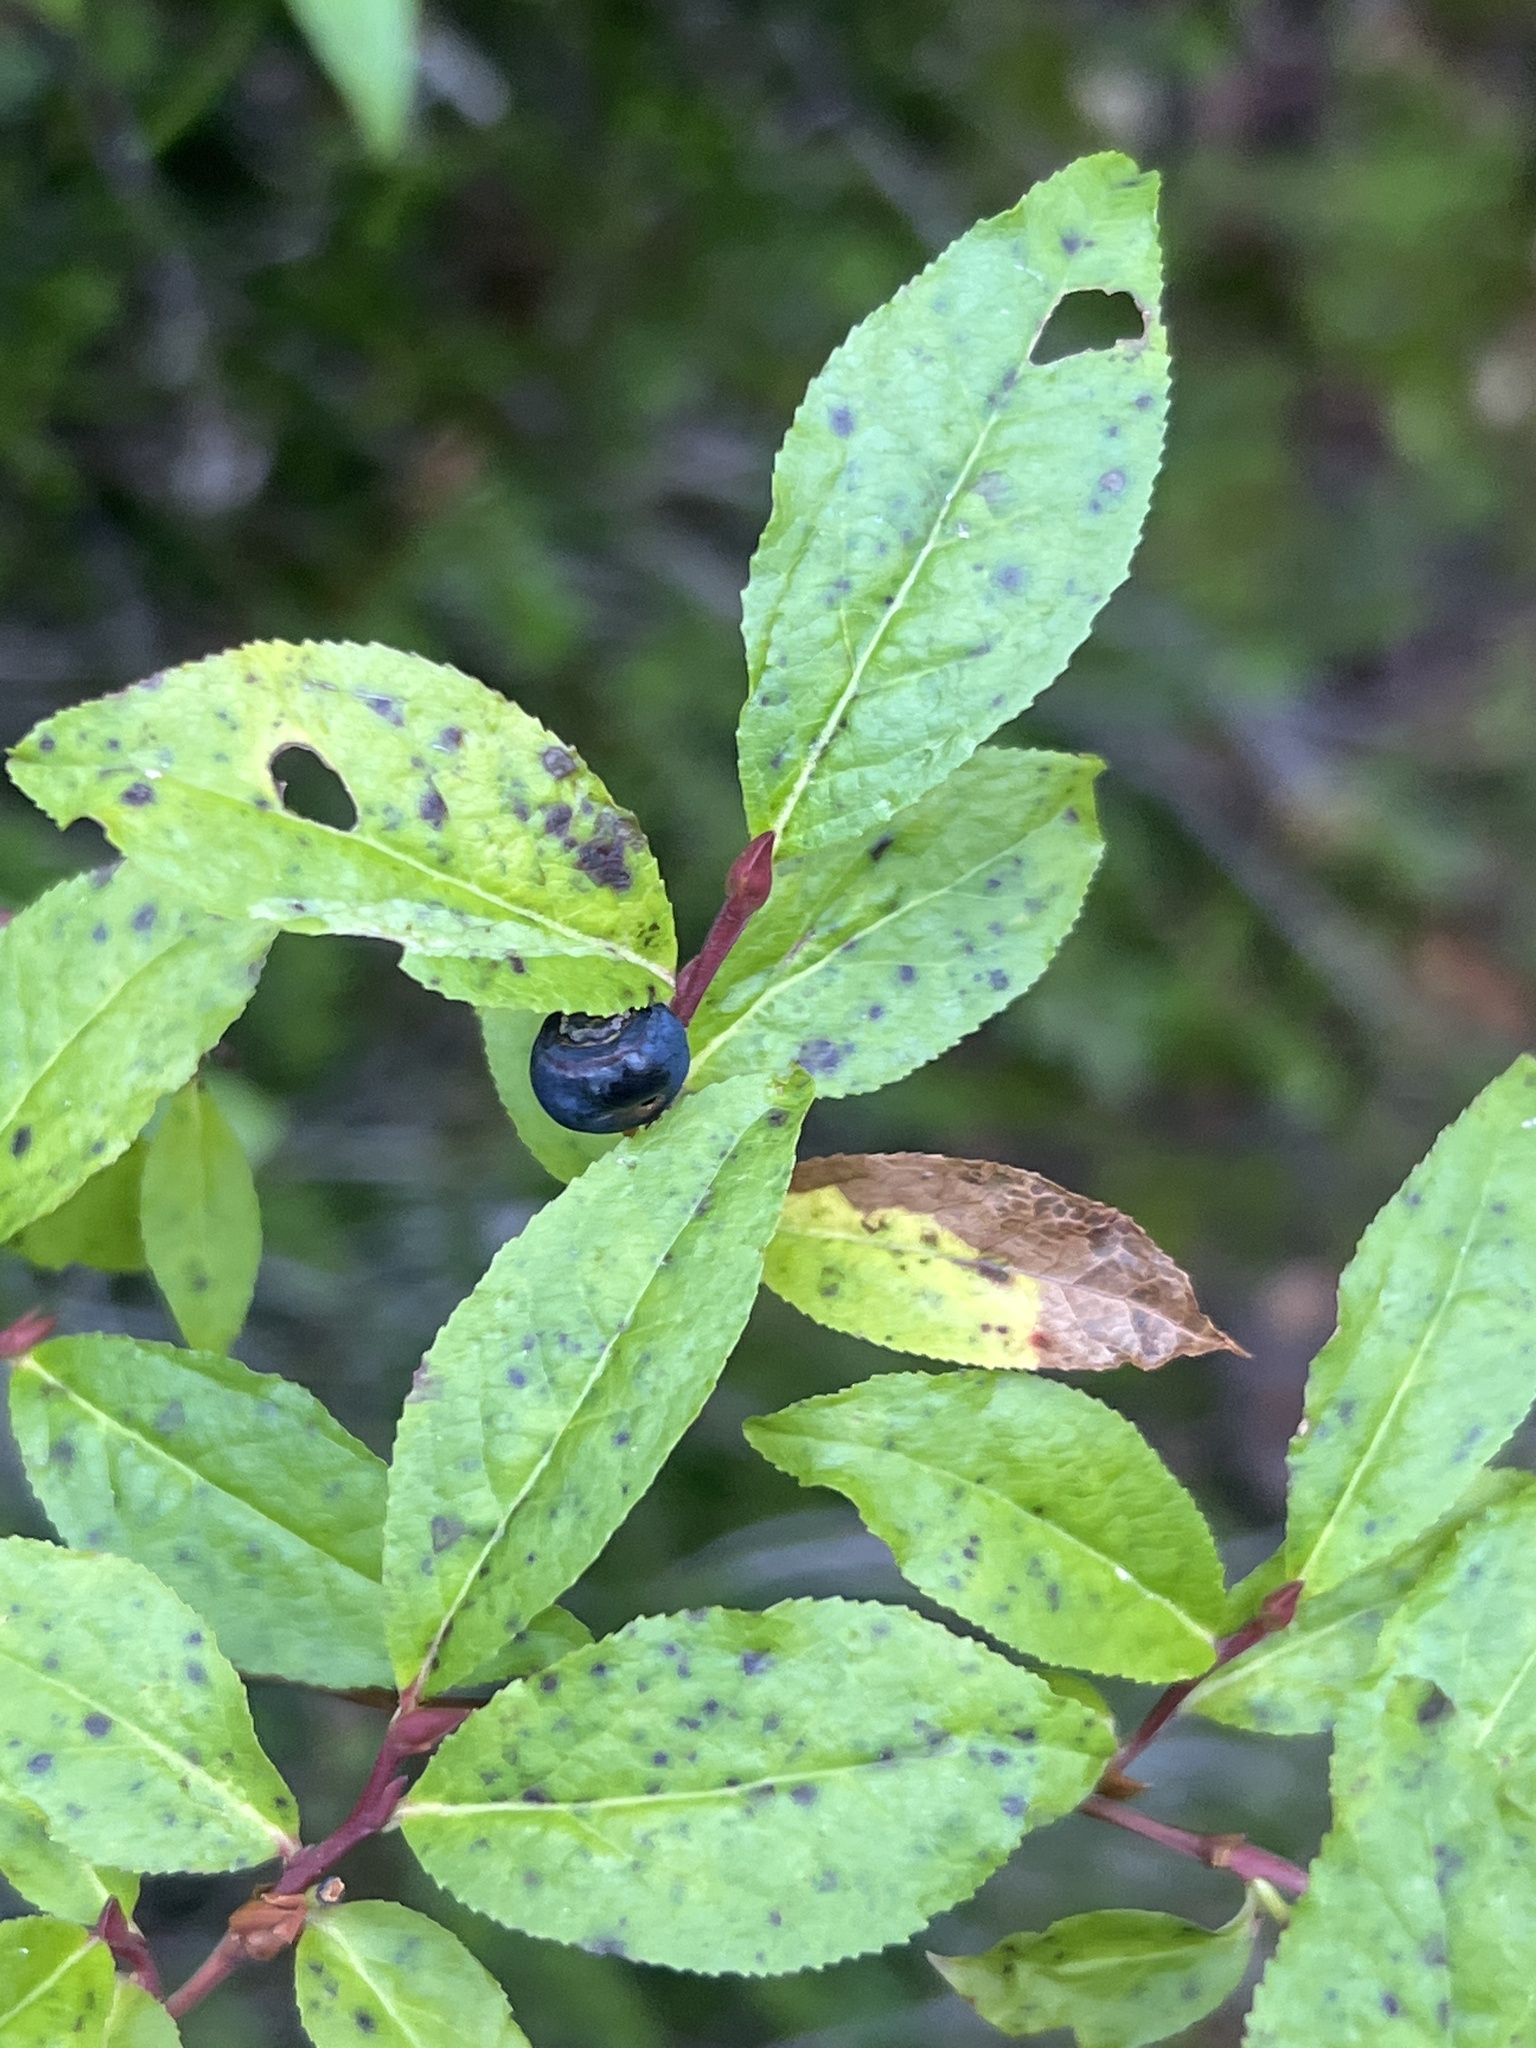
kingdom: Plantae
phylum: Tracheophyta
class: Magnoliopsida
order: Ericales
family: Ericaceae
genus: Vaccinium
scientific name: Vaccinium membranaceum
